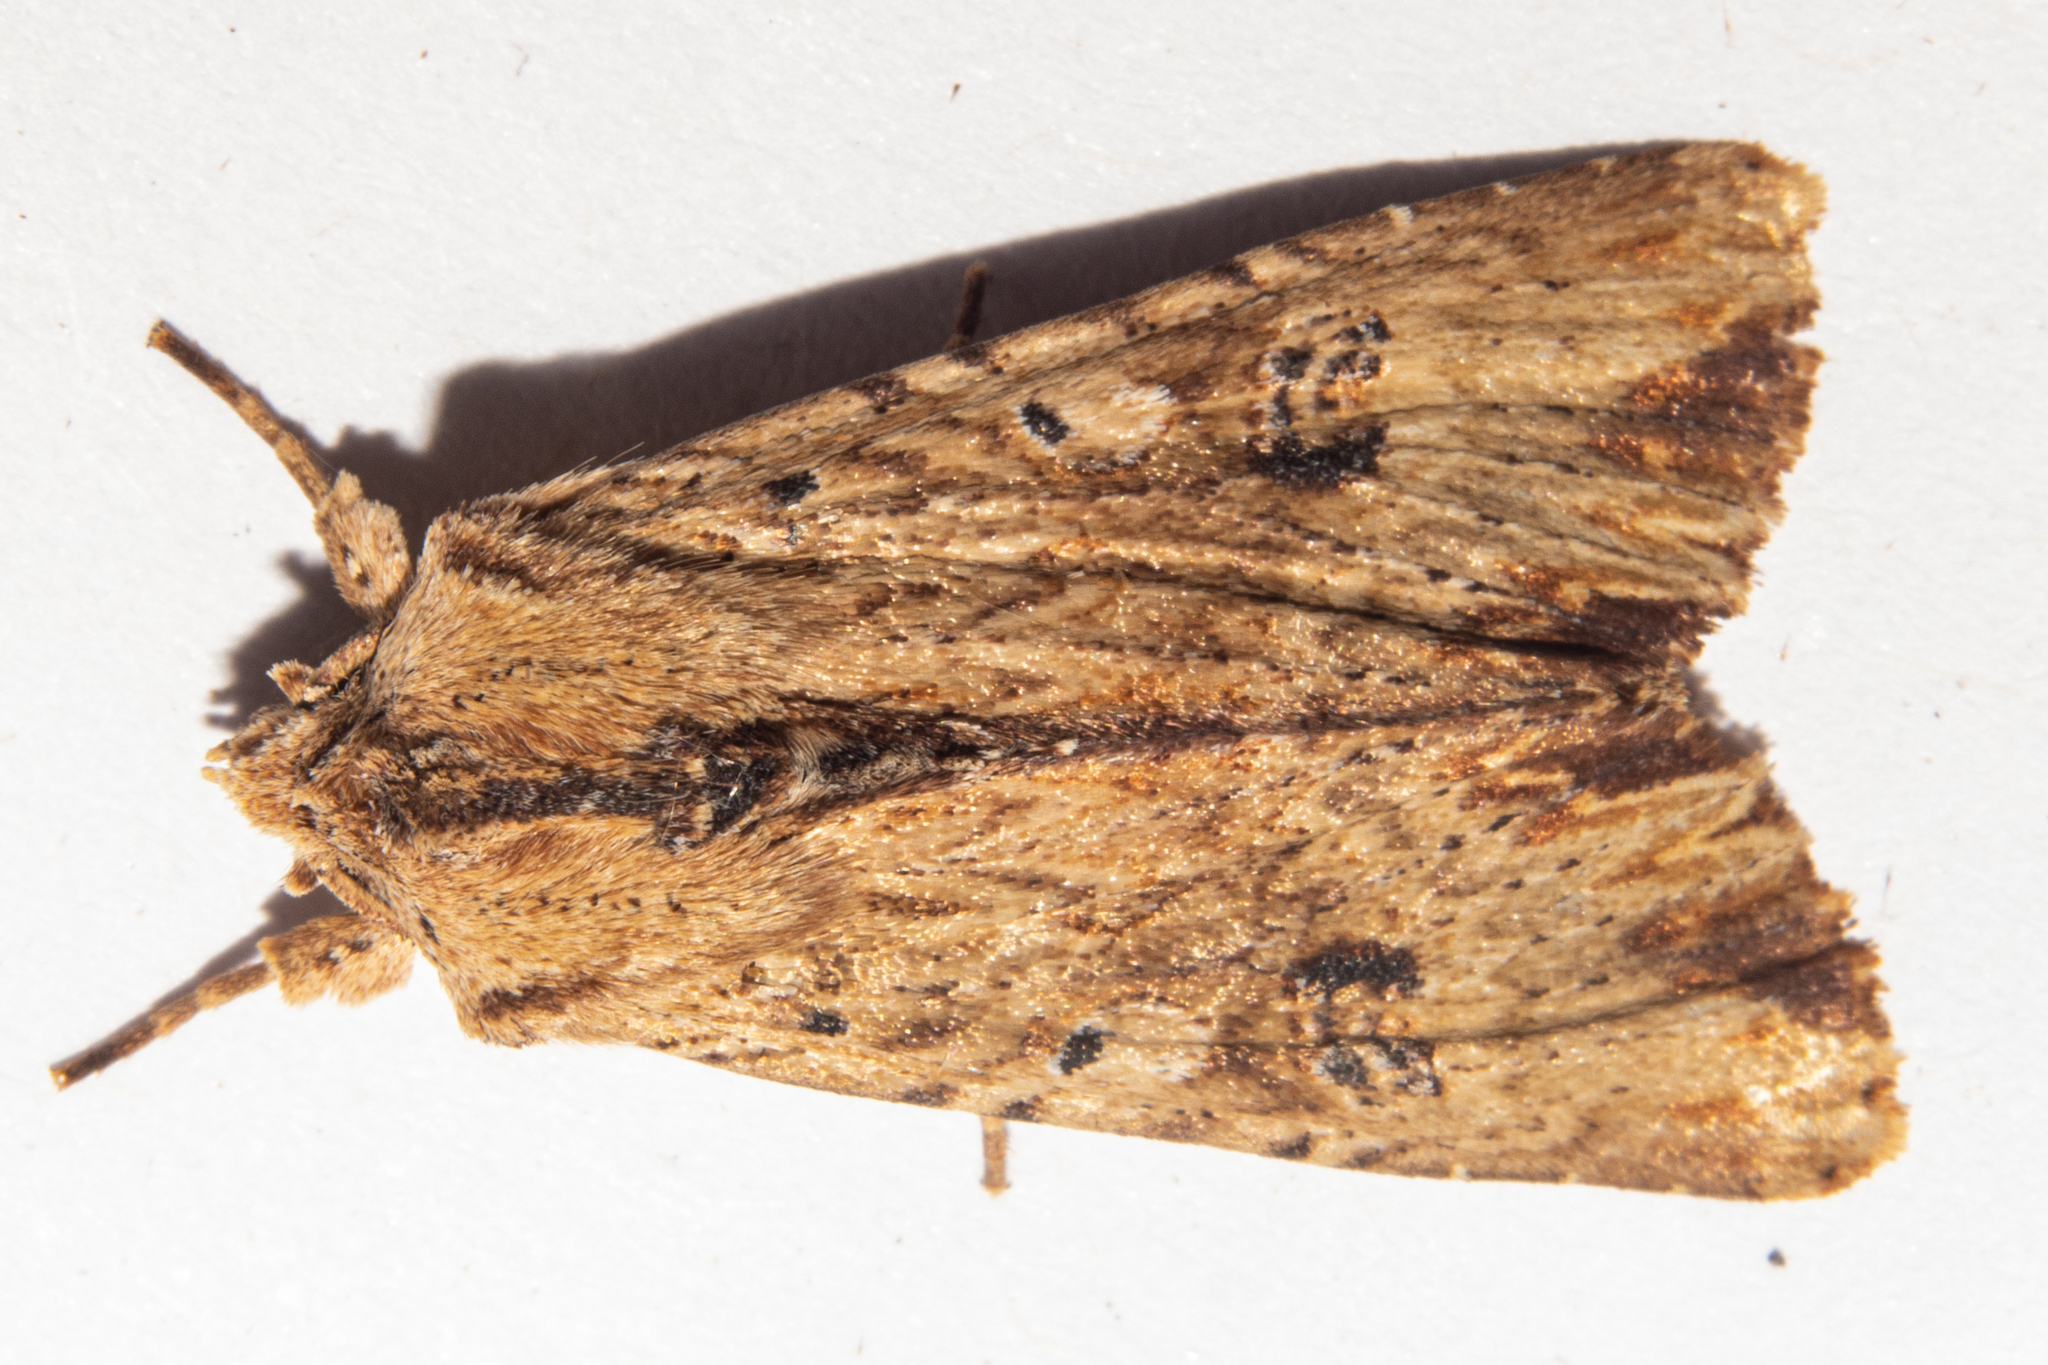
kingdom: Animalia
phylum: Arthropoda
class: Insecta
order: Lepidoptera
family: Noctuidae
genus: Ichneutica
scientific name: Ichneutica
